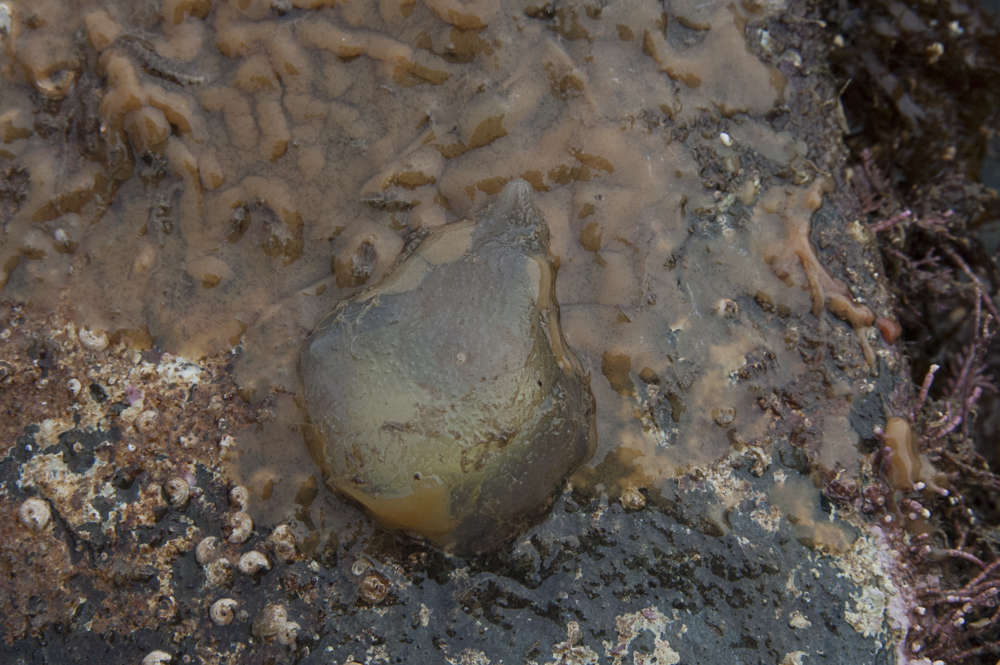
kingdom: Animalia
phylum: Chordata
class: Ascidiacea
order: Phlebobranchia
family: Ascidiidae
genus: Ascidia
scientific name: Ascidia conchilega
